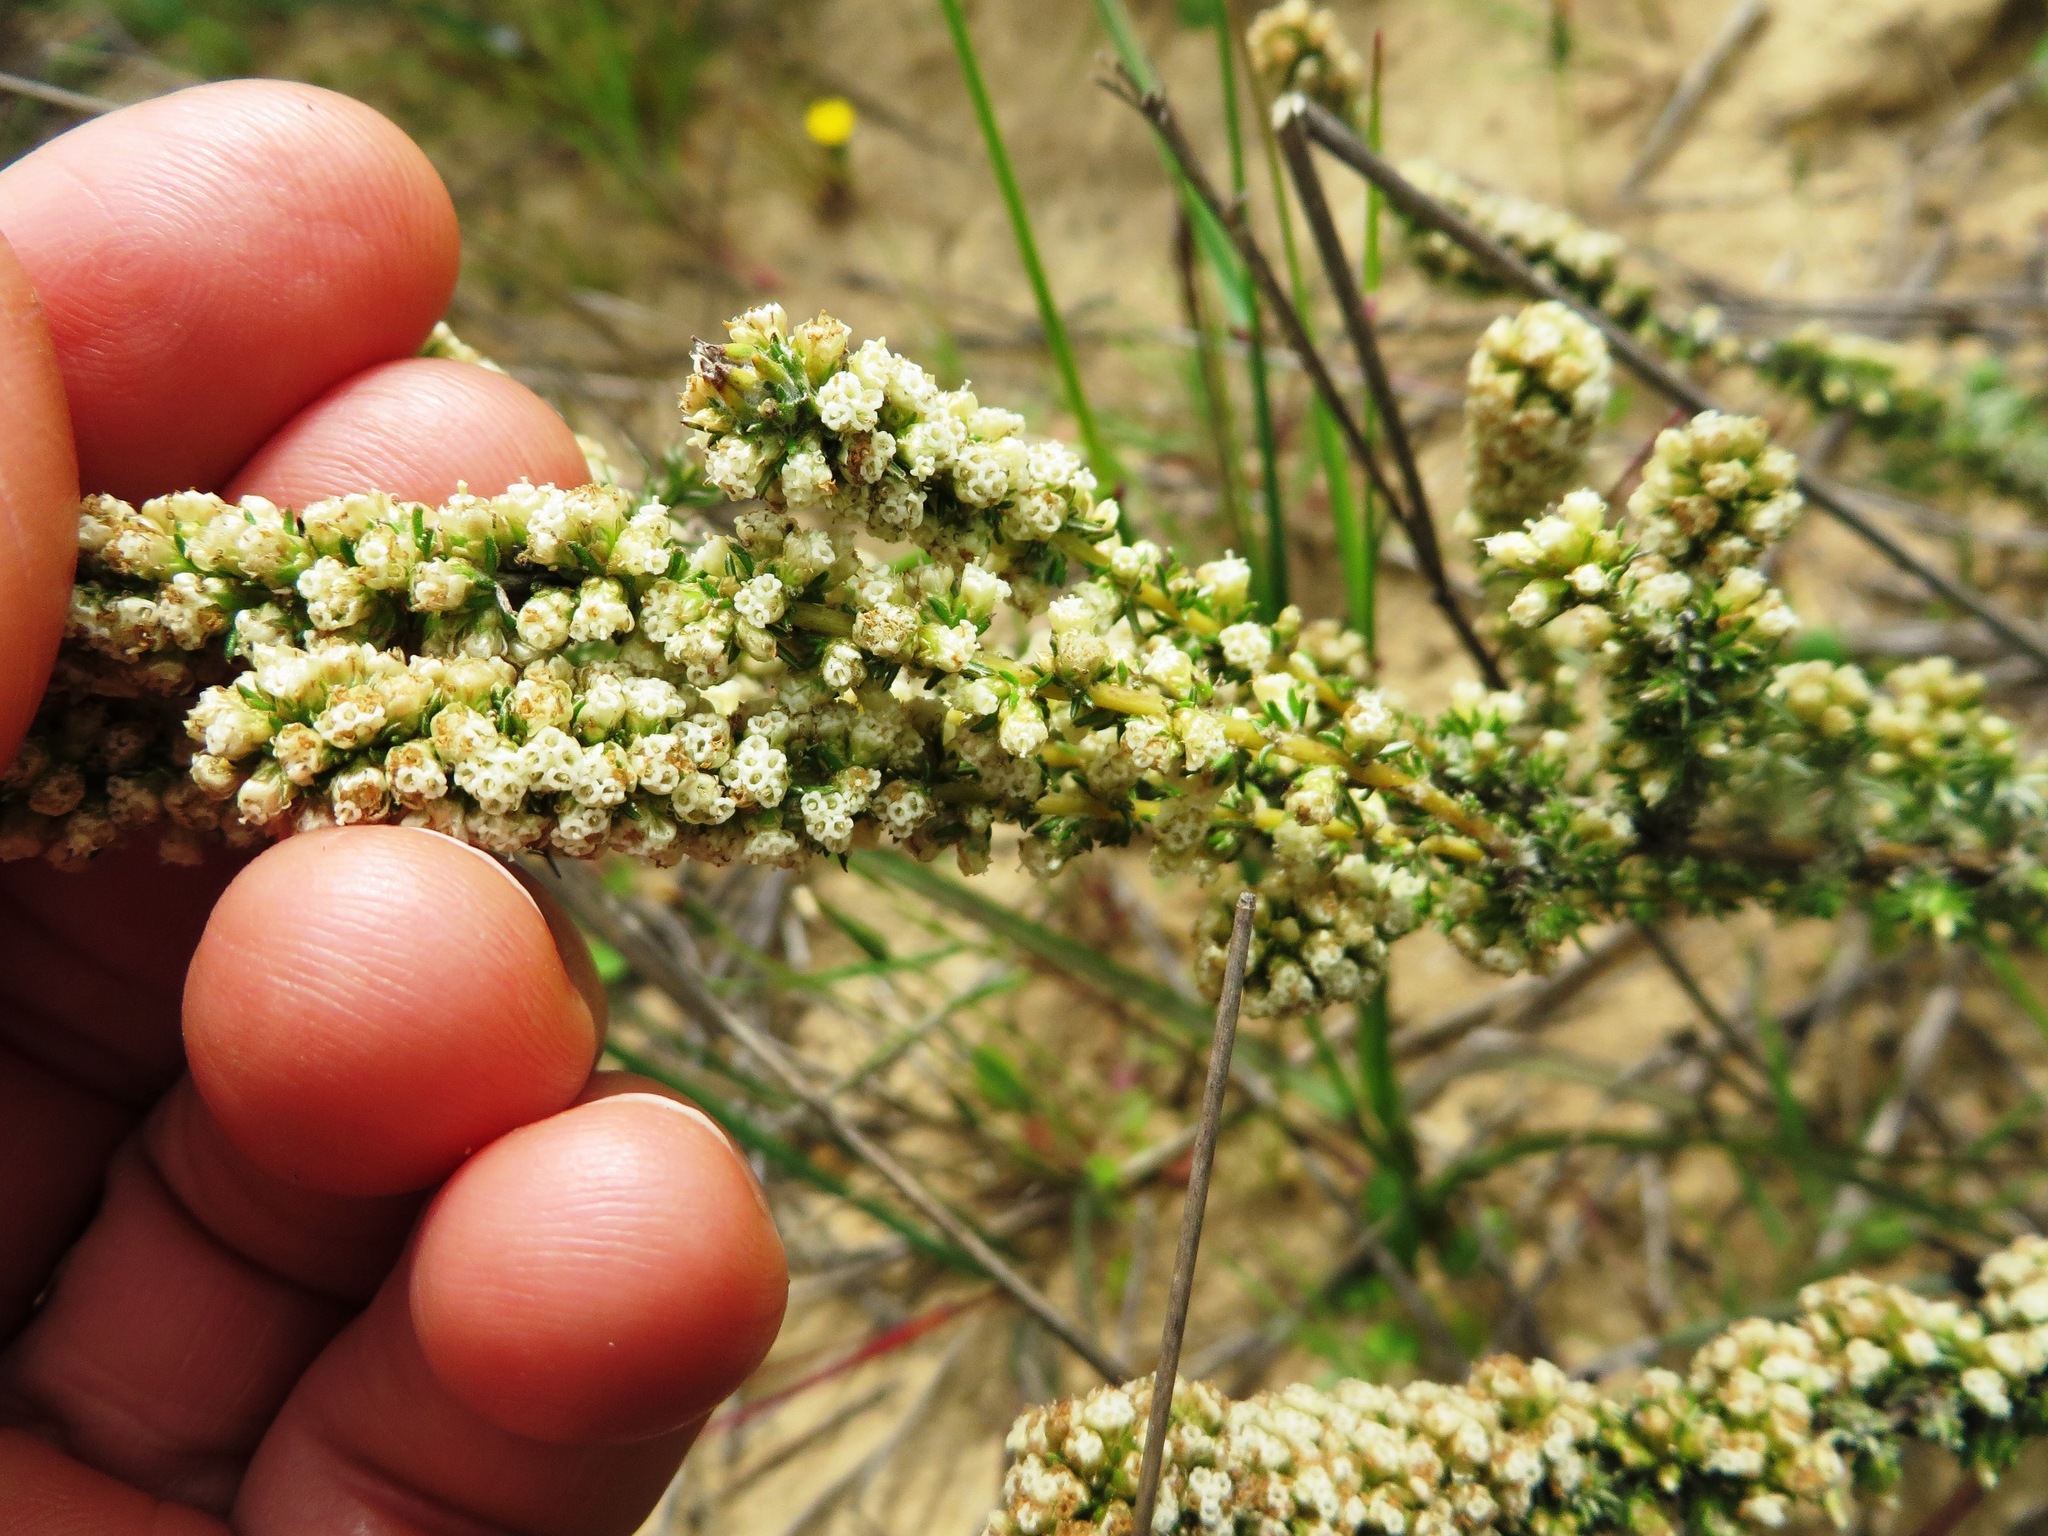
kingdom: Plantae
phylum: Tracheophyta
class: Magnoliopsida
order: Asterales
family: Asteraceae
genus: Ifloga
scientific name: Ifloga ambigua
